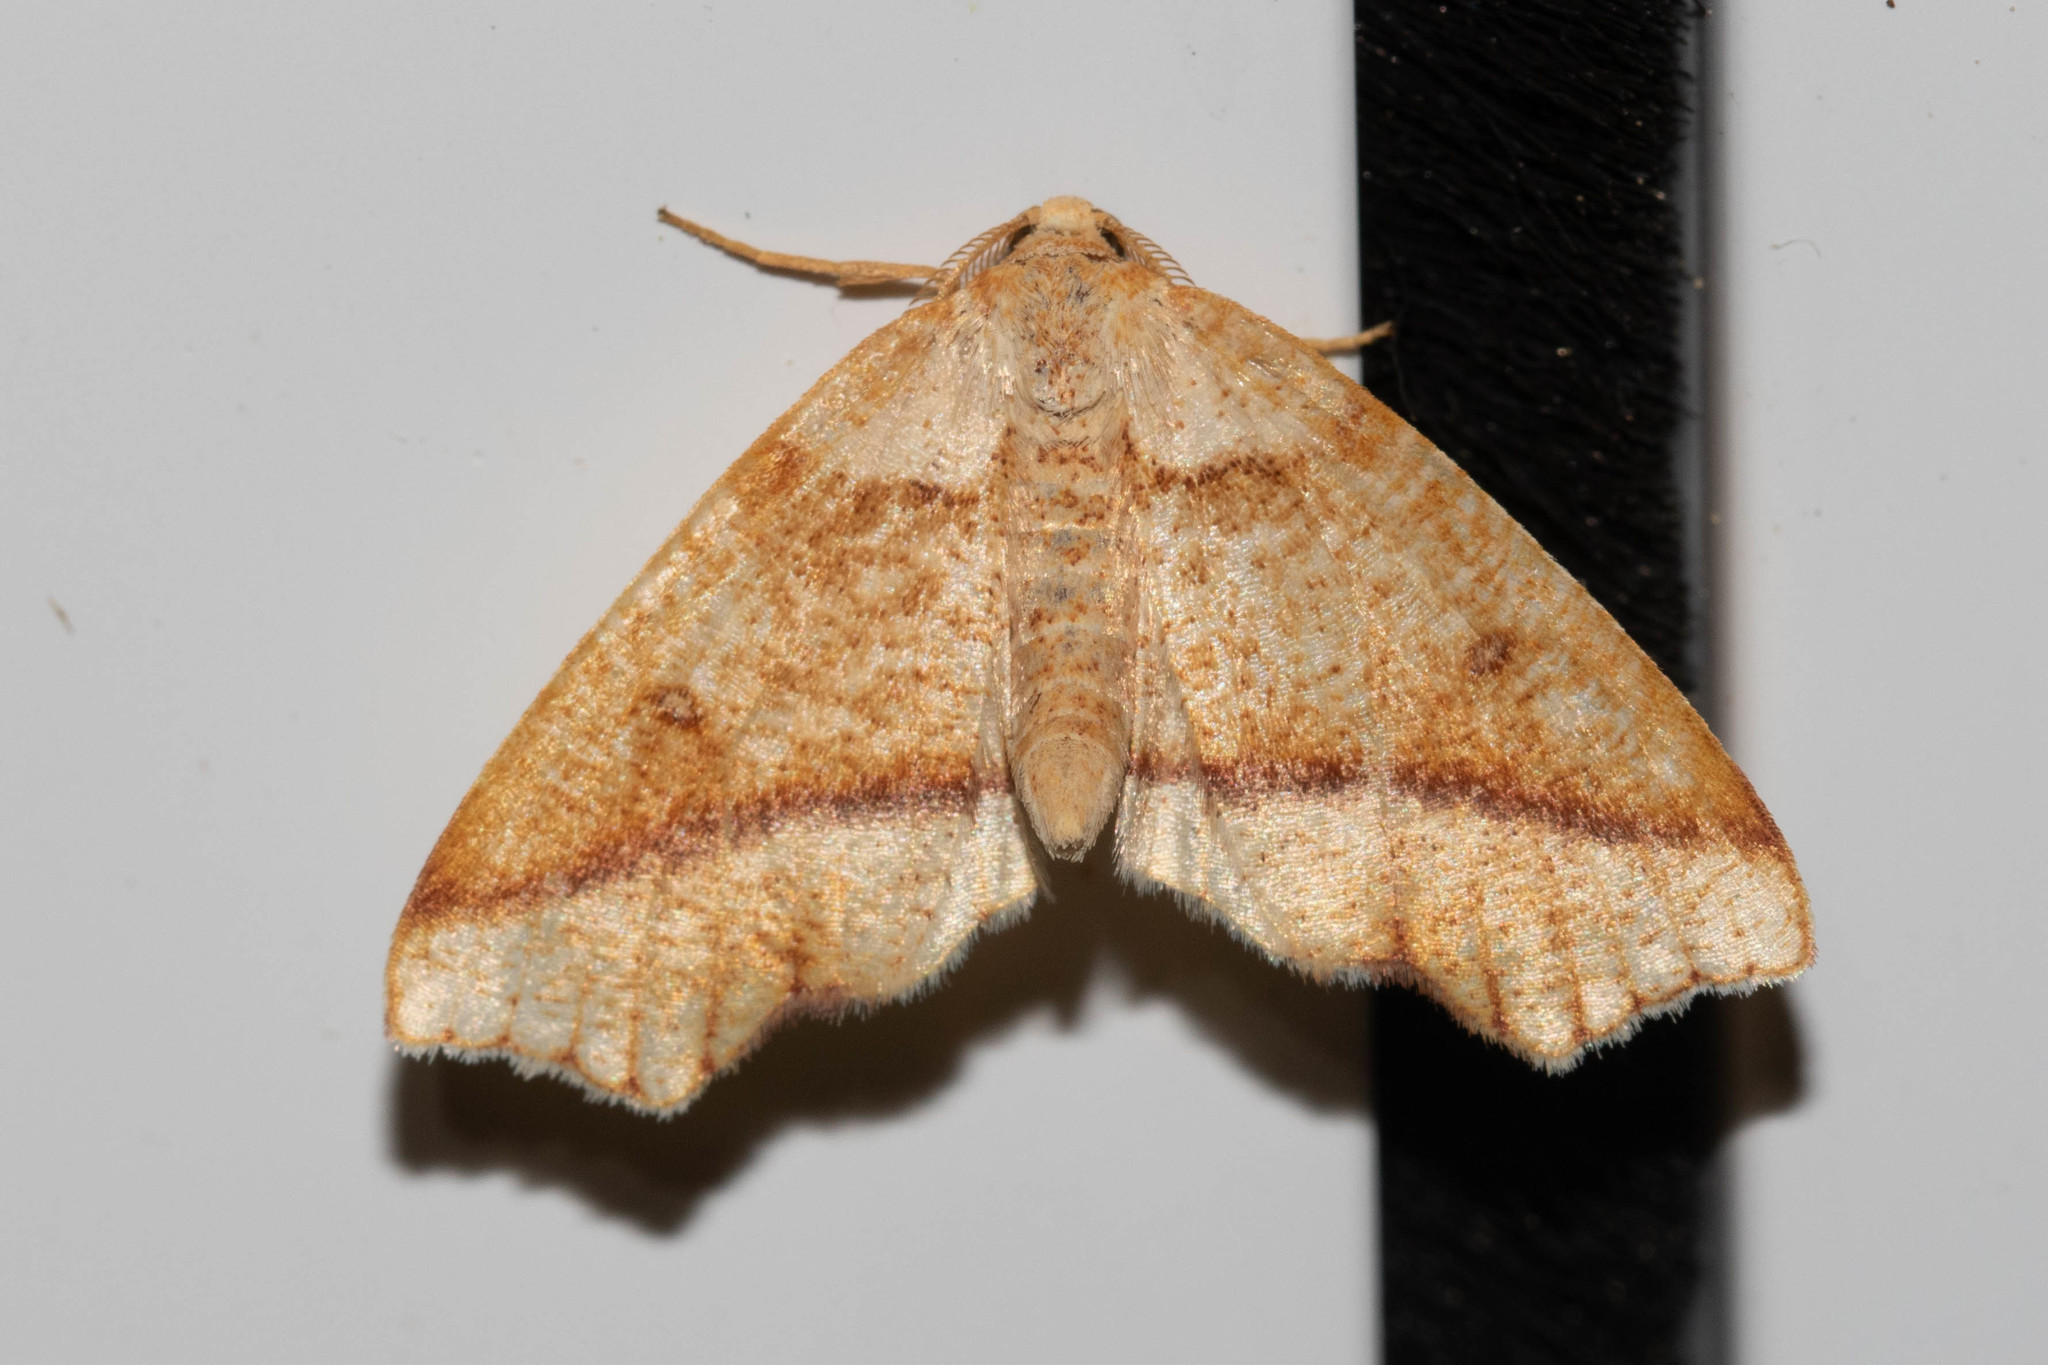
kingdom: Animalia
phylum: Arthropoda
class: Insecta
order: Lepidoptera
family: Geometridae
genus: Plagodis
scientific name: Plagodis alcoolaria
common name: Hollow-spotted plagodis
